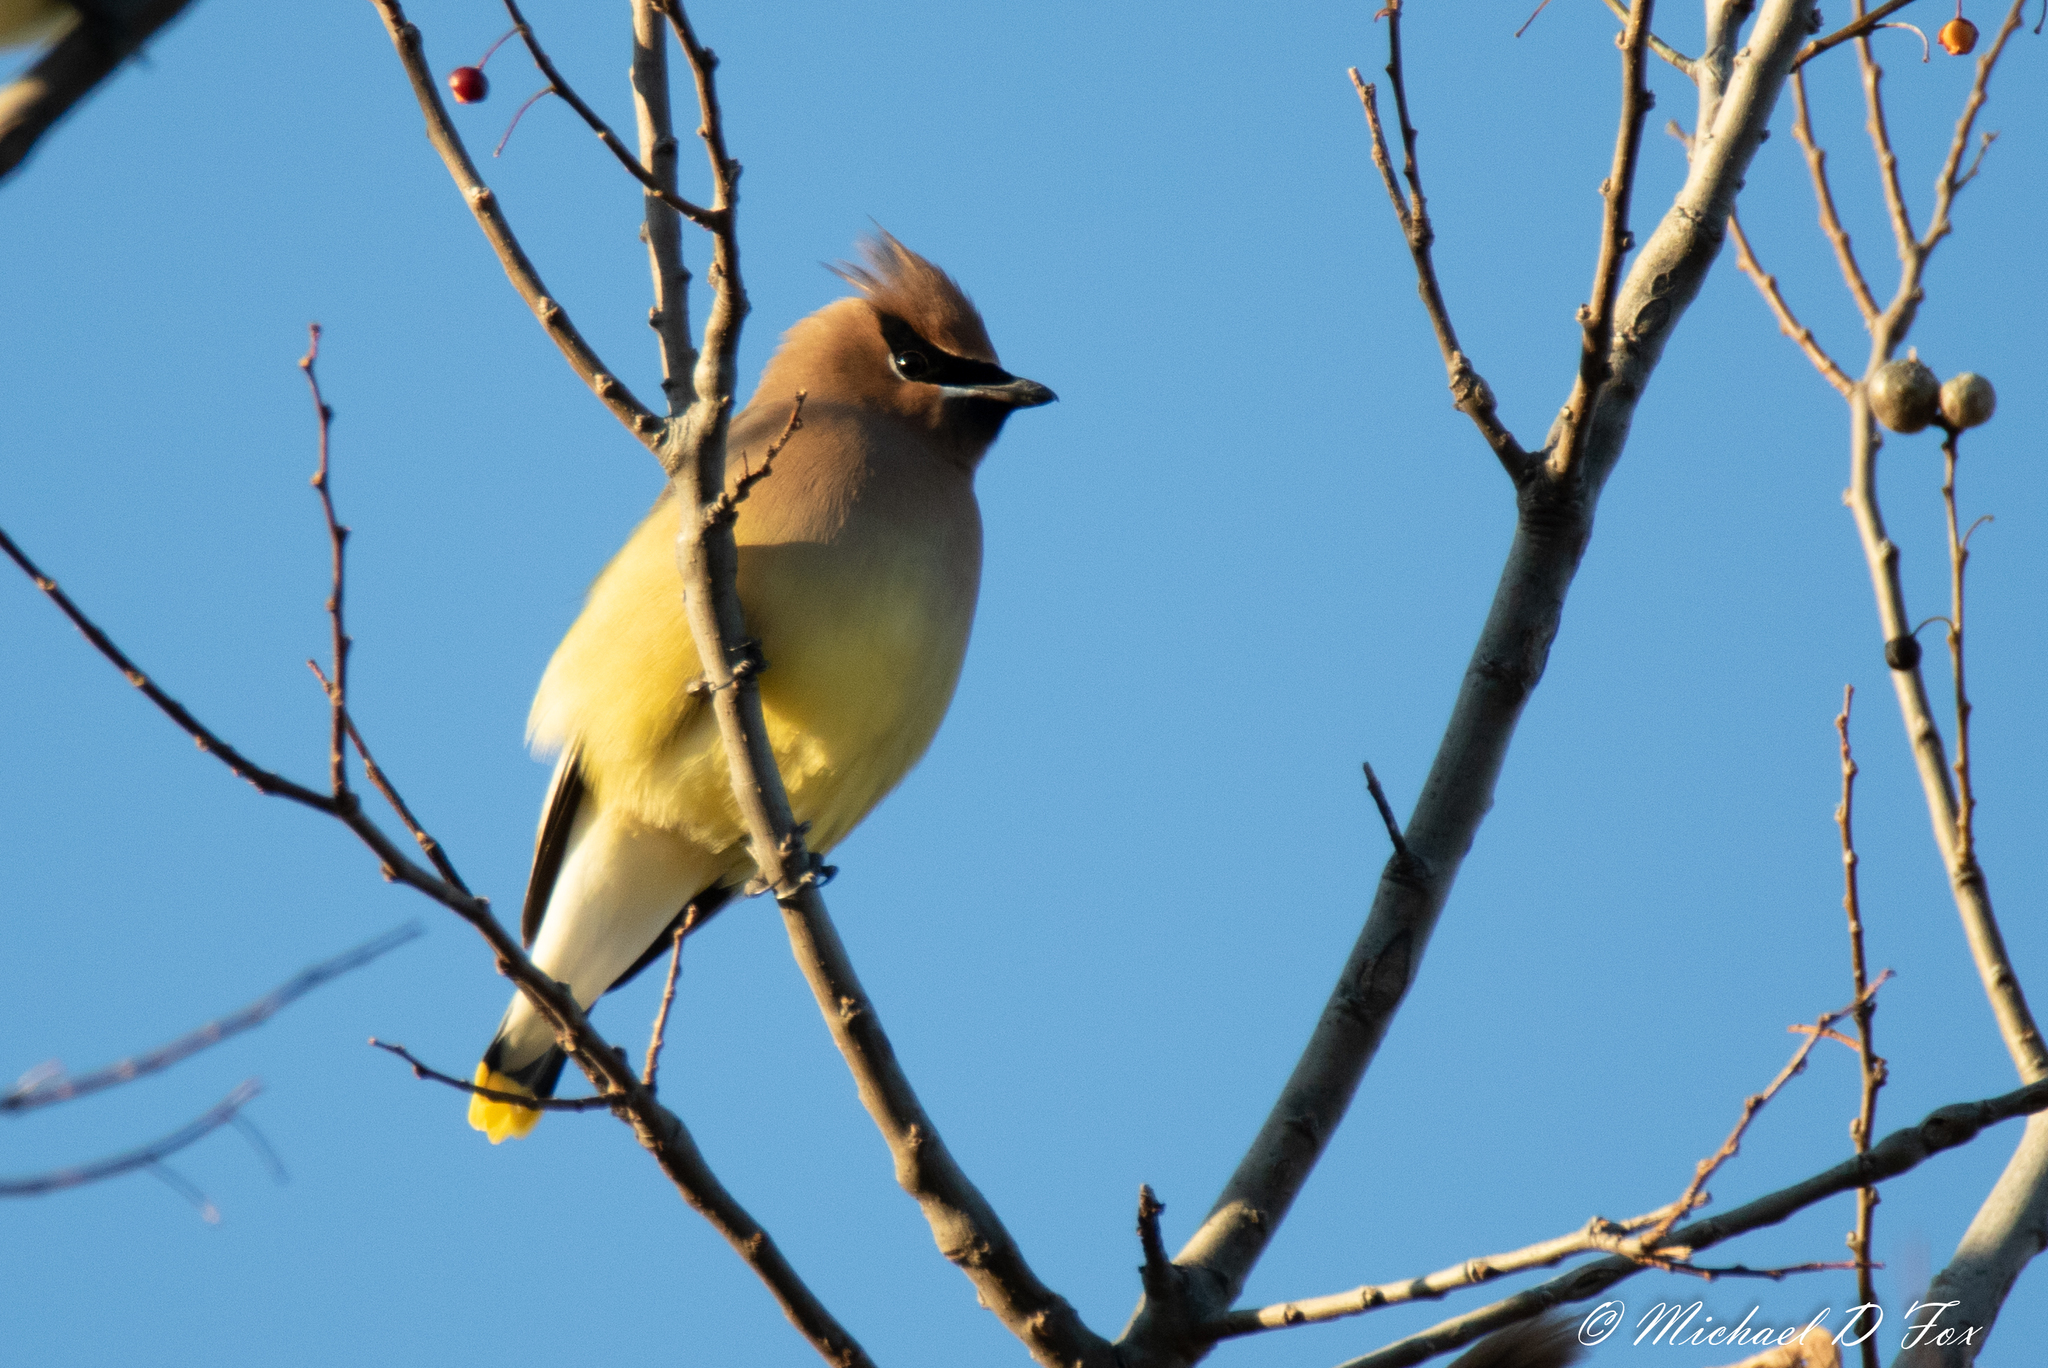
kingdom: Animalia
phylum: Chordata
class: Aves
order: Passeriformes
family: Bombycillidae
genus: Bombycilla
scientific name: Bombycilla cedrorum
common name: Cedar waxwing
